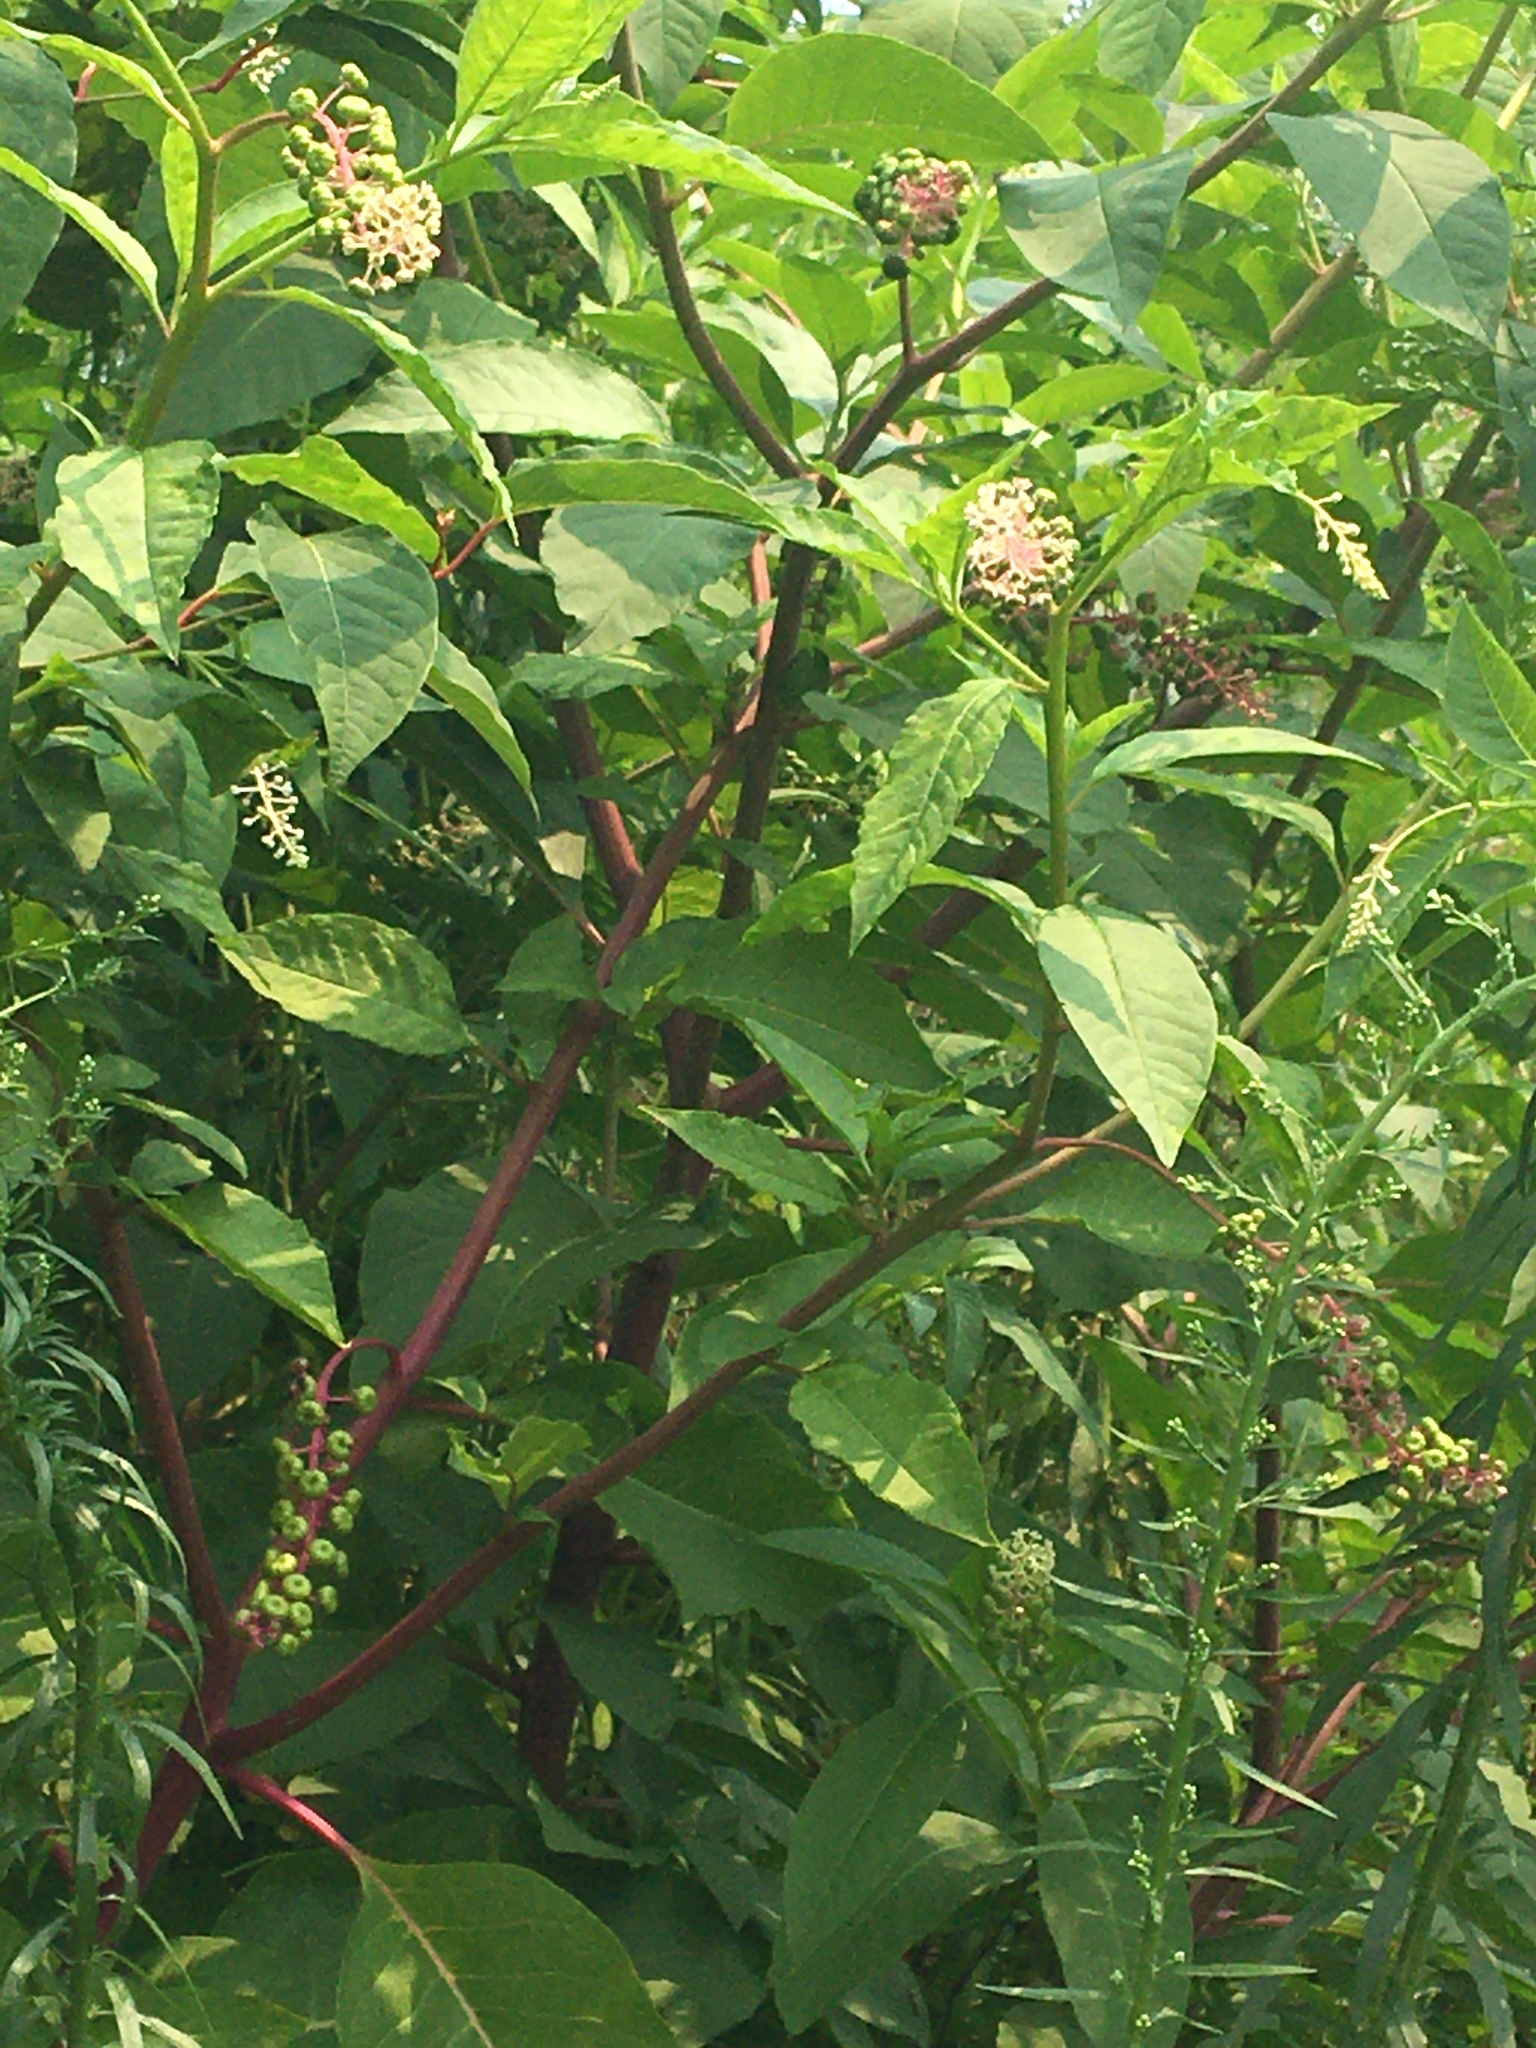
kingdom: Plantae
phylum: Tracheophyta
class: Magnoliopsida
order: Caryophyllales
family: Phytolaccaceae
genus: Phytolacca
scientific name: Phytolacca americana
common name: American pokeweed
